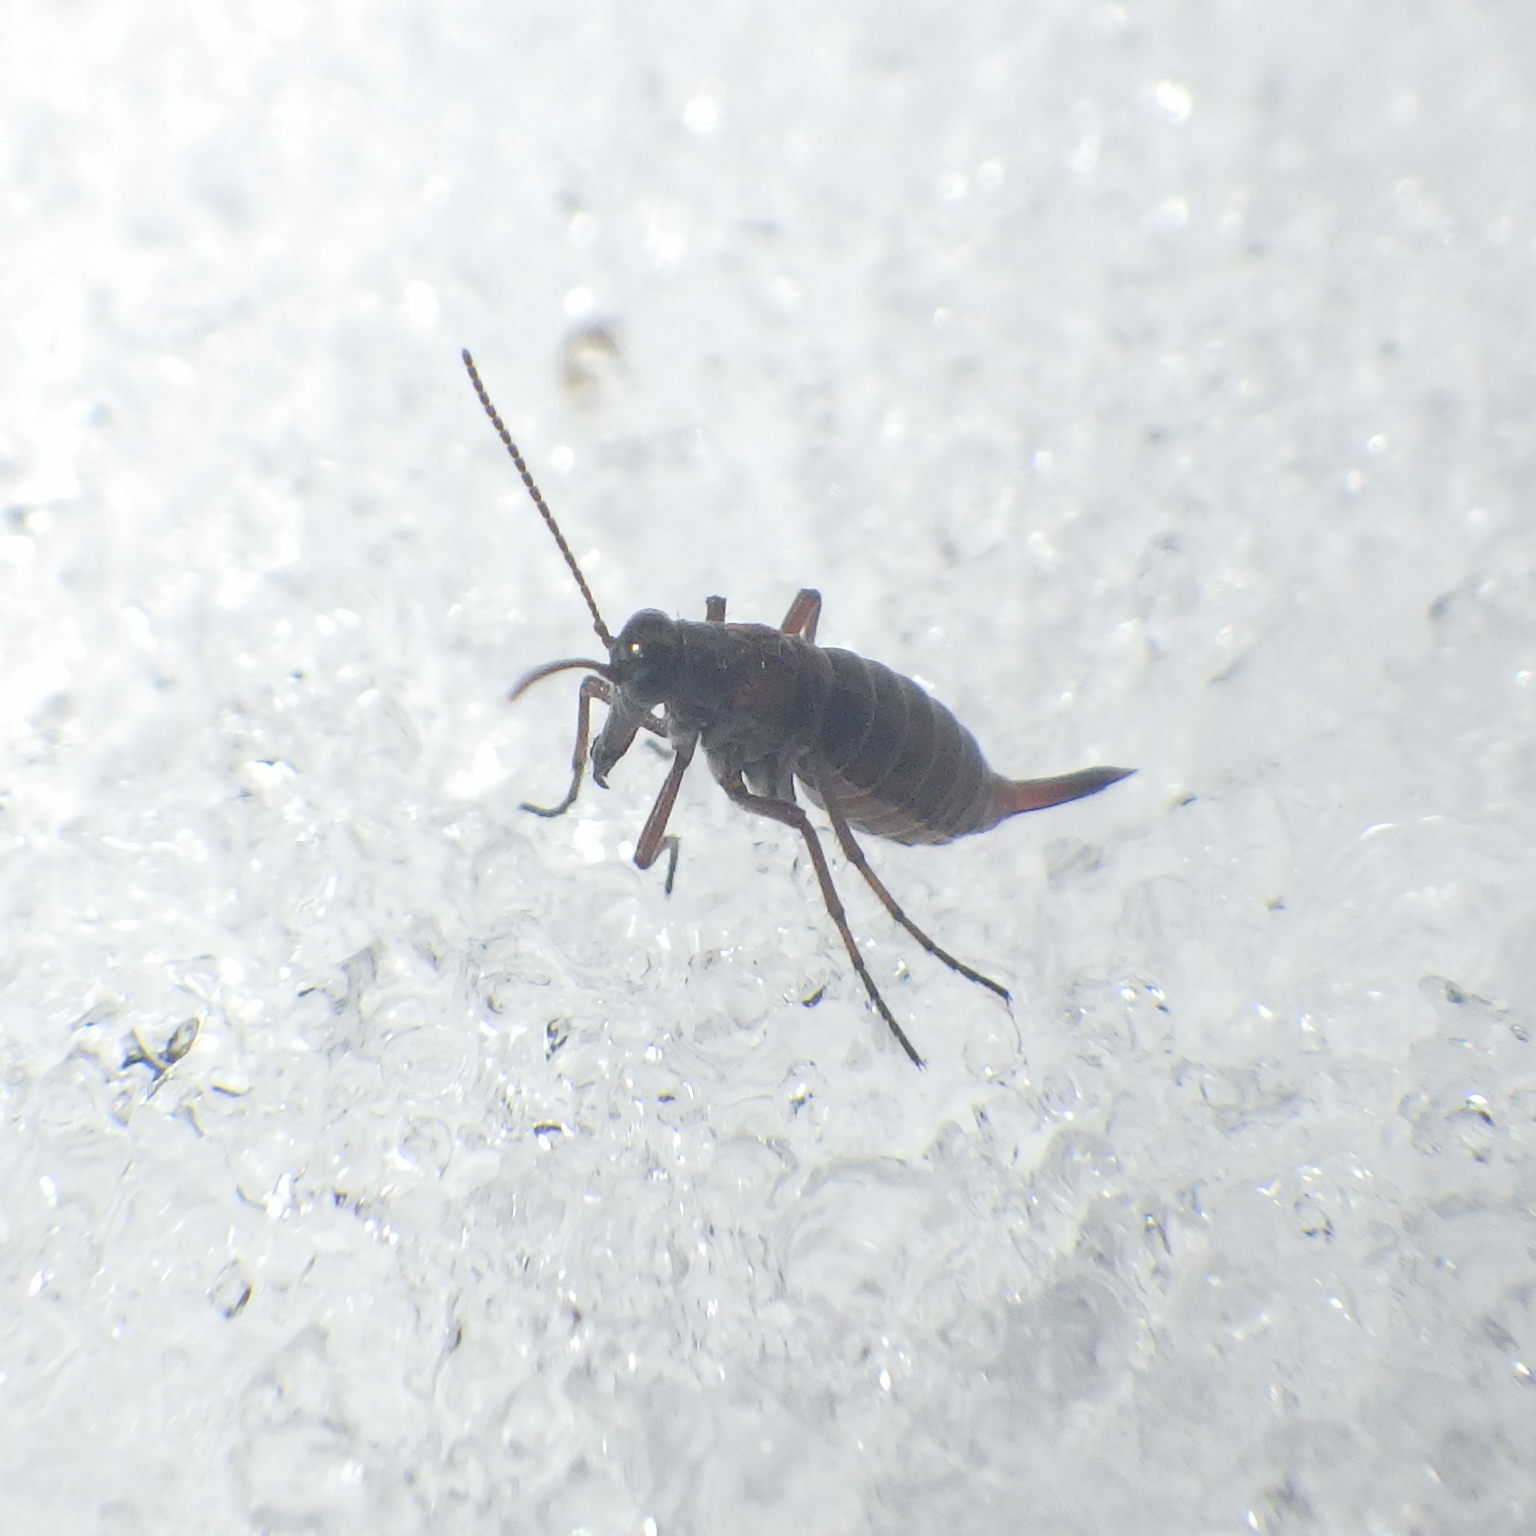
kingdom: Animalia
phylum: Arthropoda
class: Insecta
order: Mecoptera
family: Boreidae
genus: Boreus
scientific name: Boreus nivoriundus
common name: Snow-born boreus
